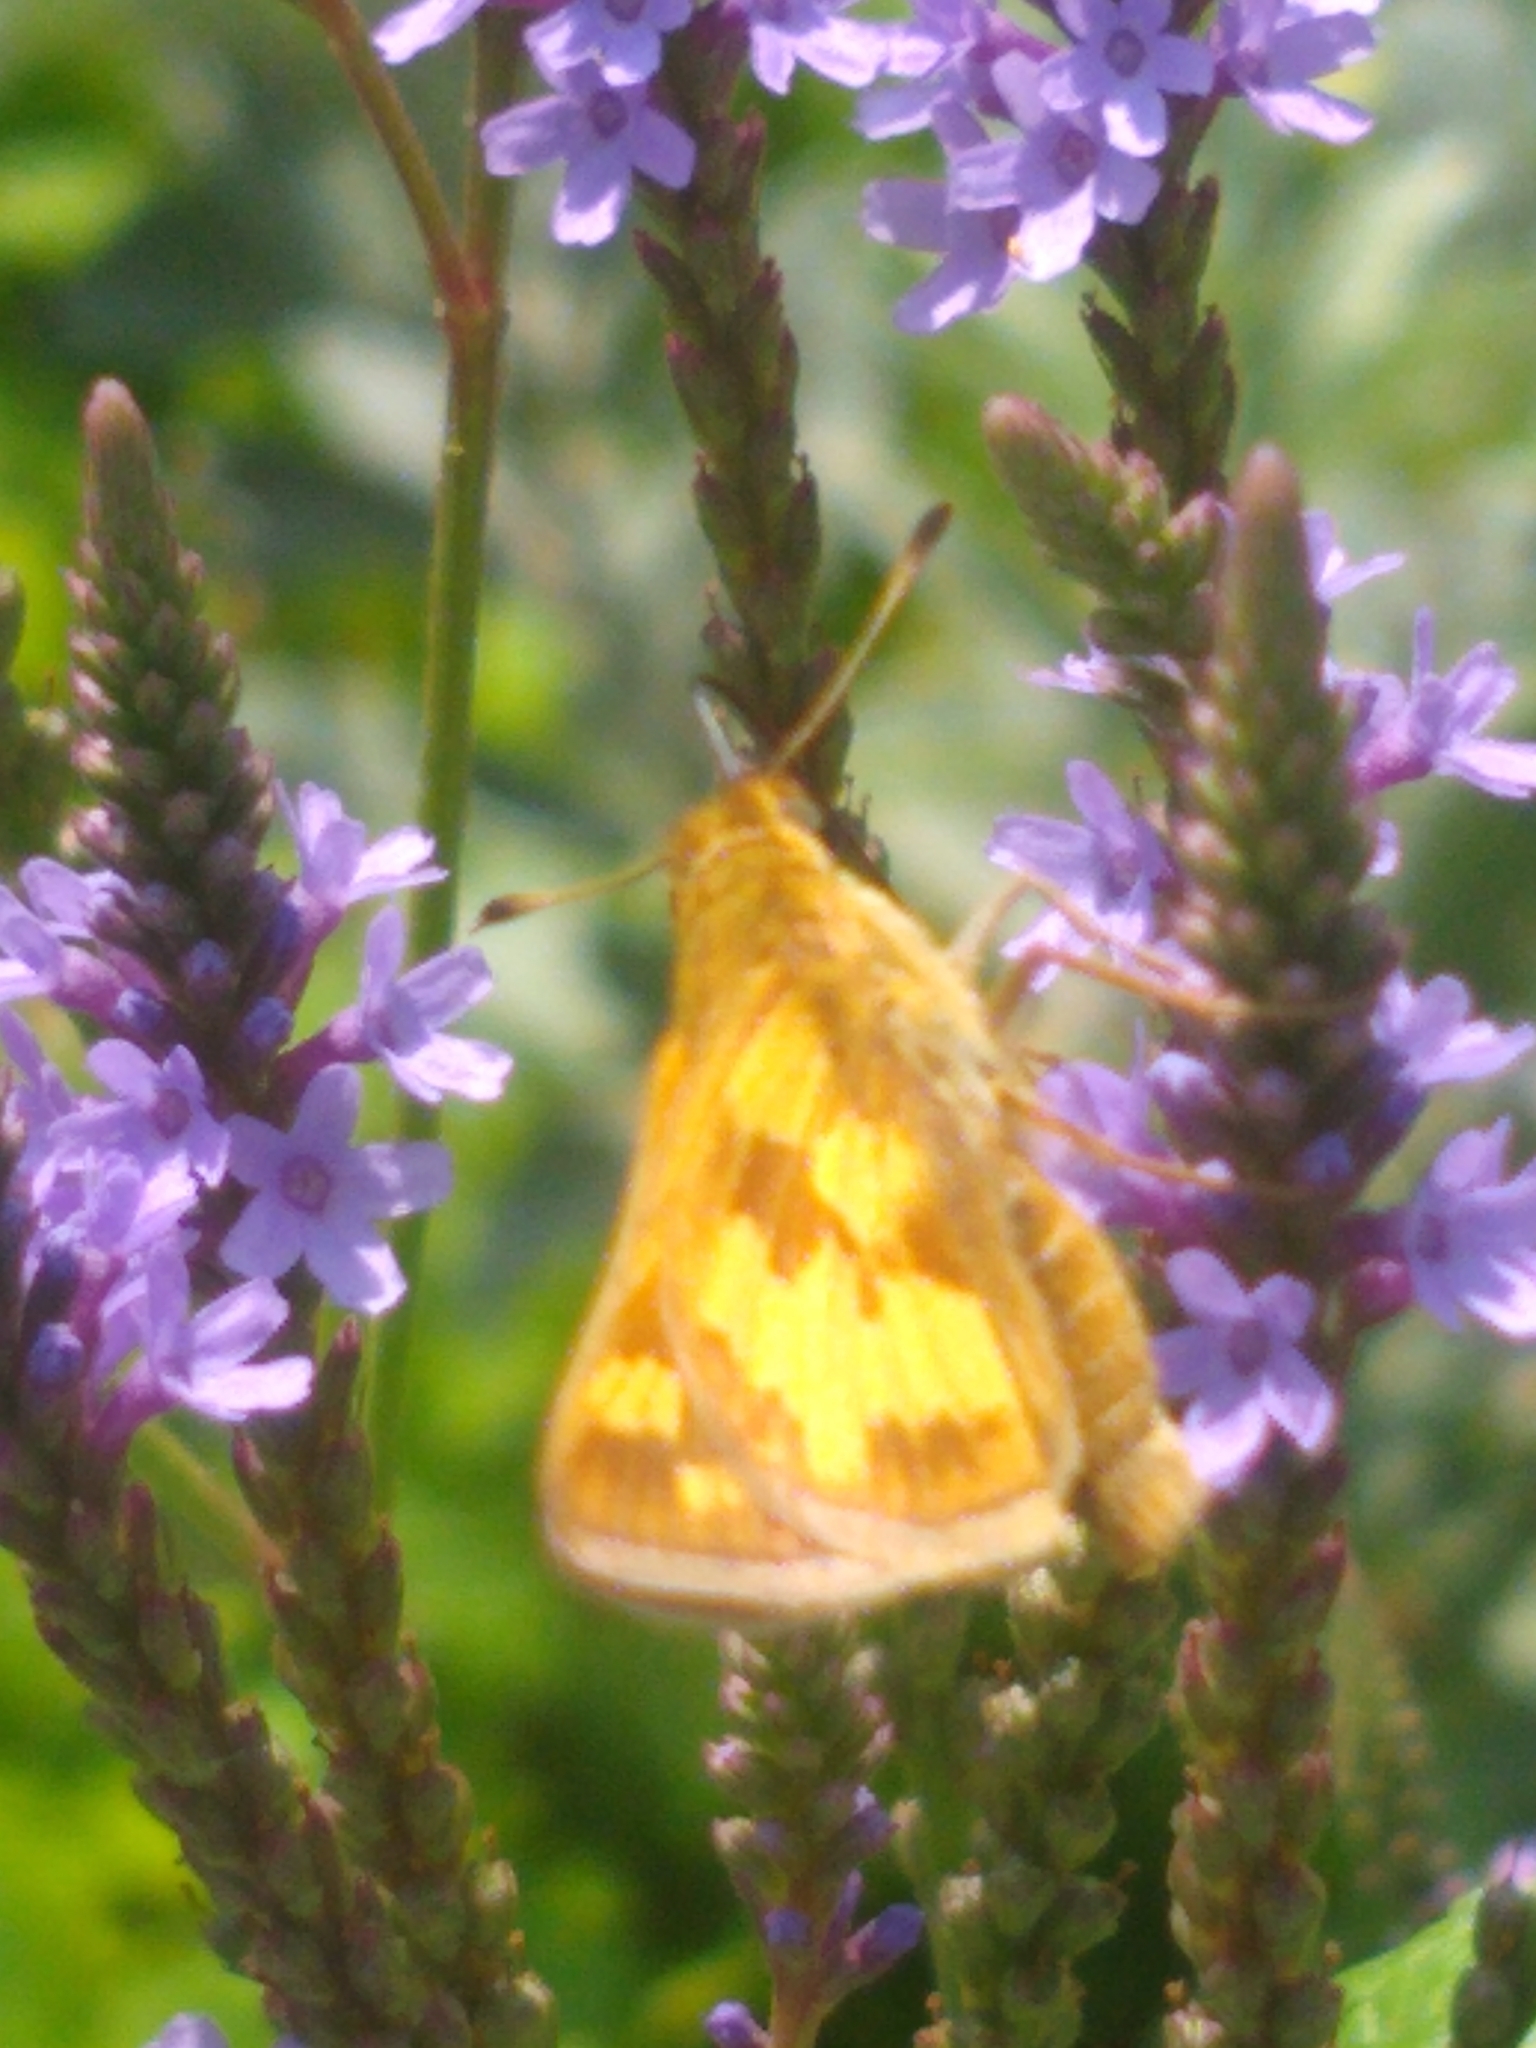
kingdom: Animalia
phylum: Arthropoda
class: Insecta
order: Lepidoptera
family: Hesperiidae
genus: Polites
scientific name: Polites coras
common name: Peck's skipper
